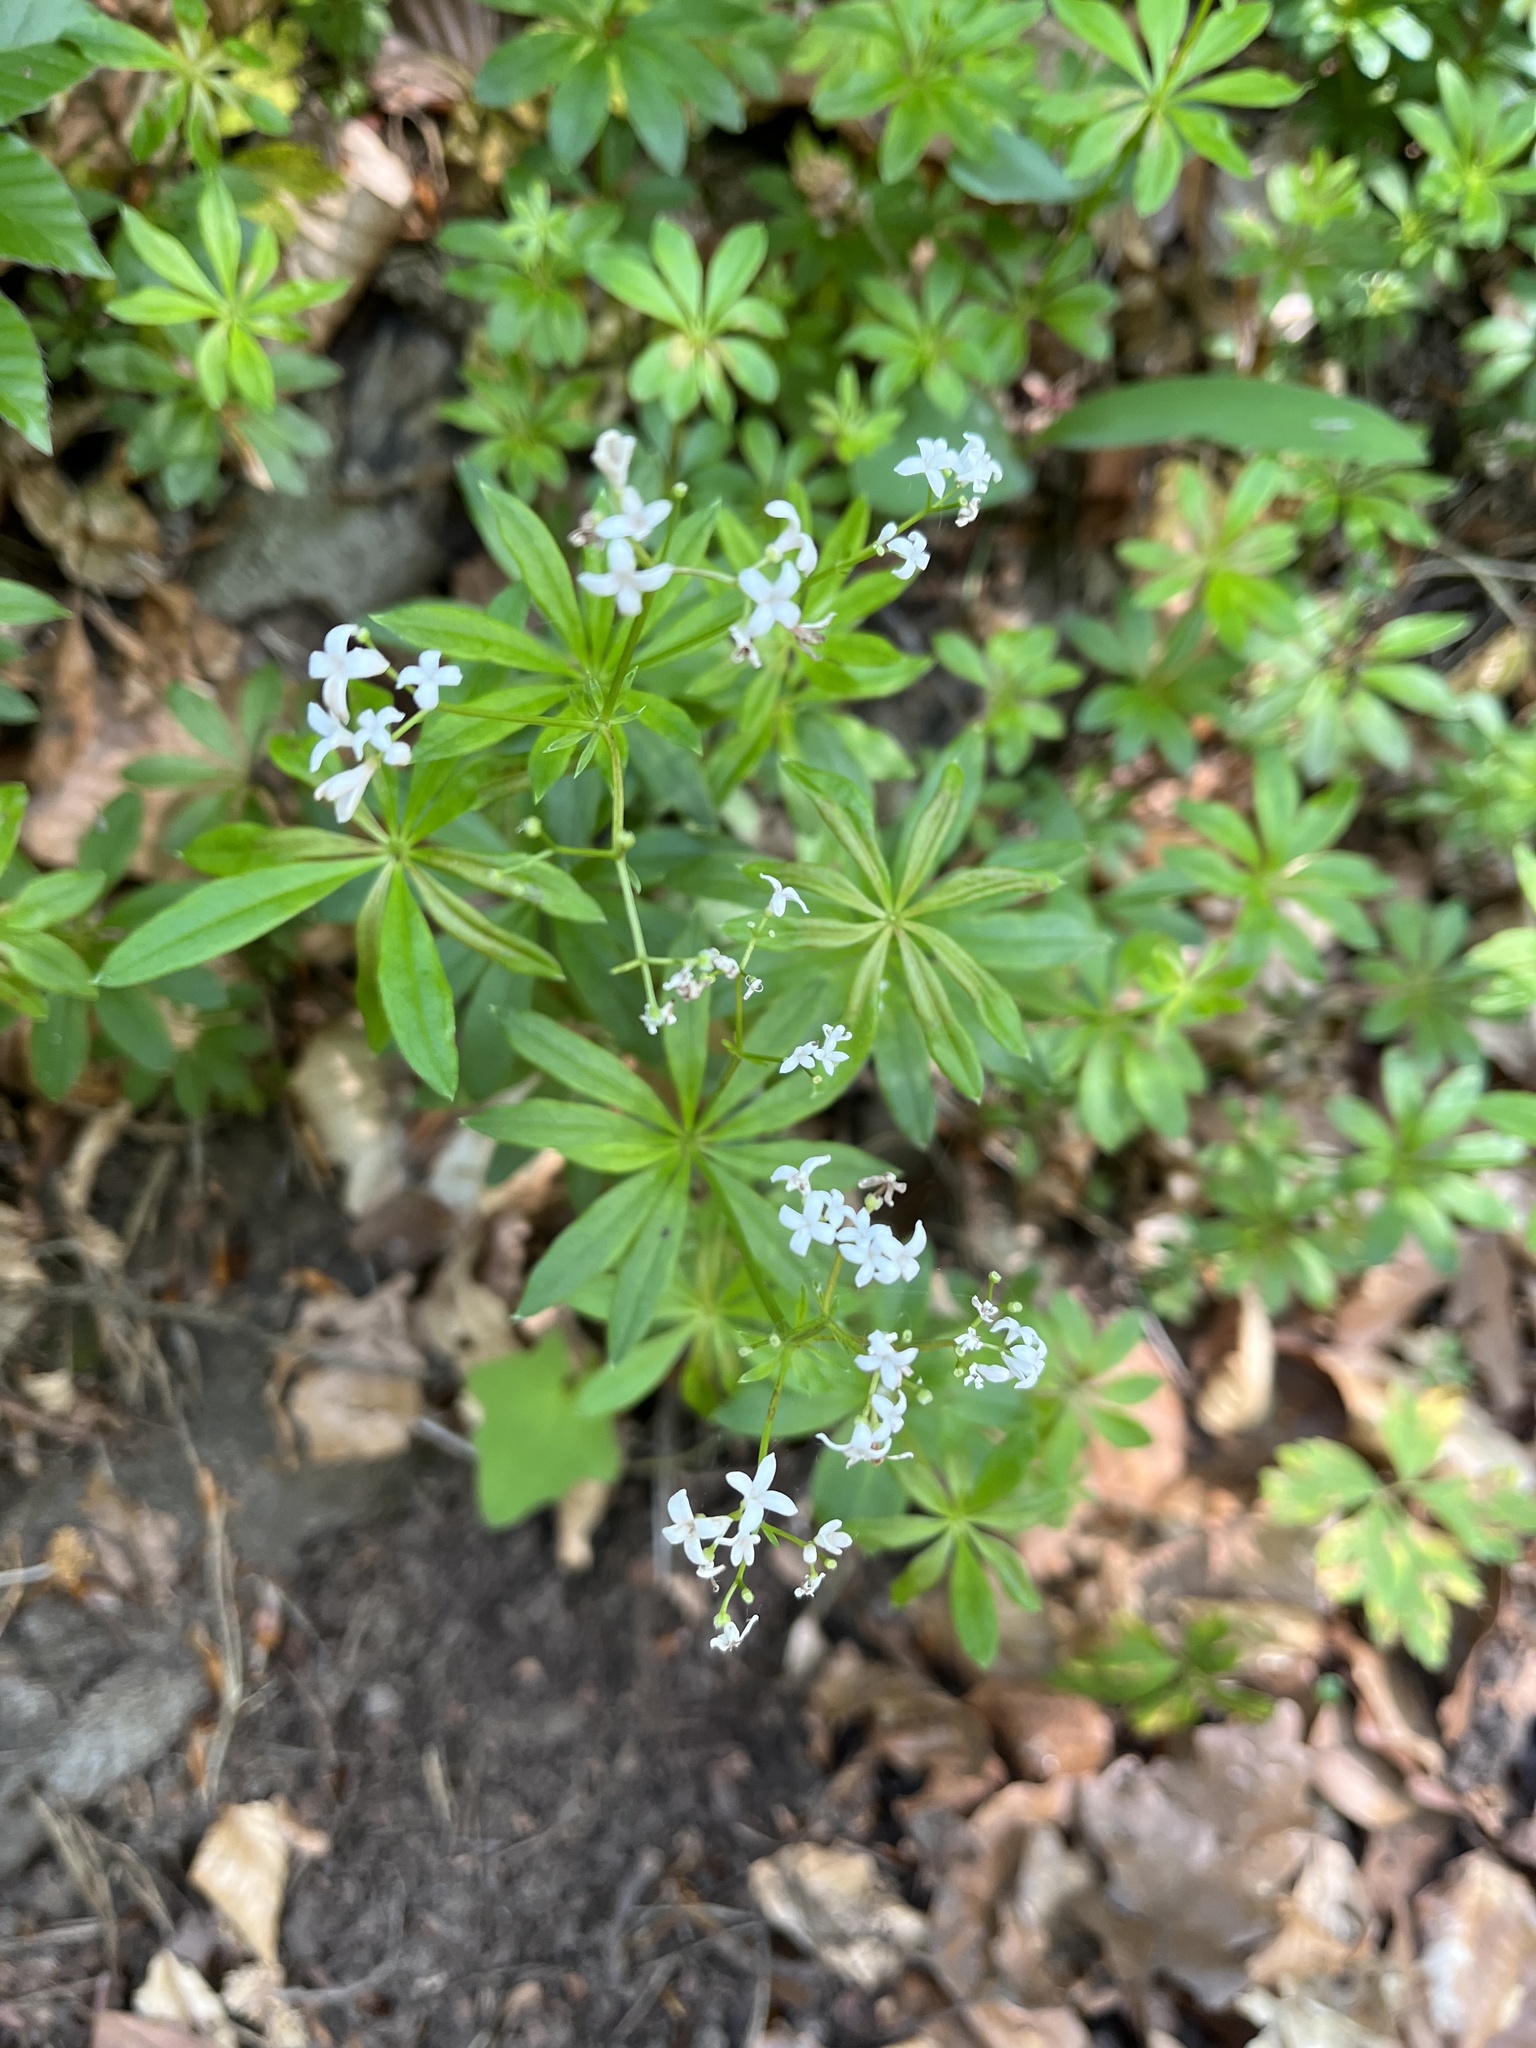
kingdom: Plantae
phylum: Tracheophyta
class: Magnoliopsida
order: Gentianales
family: Rubiaceae
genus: Galium
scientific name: Galium odoratum
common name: Sweet woodruff
